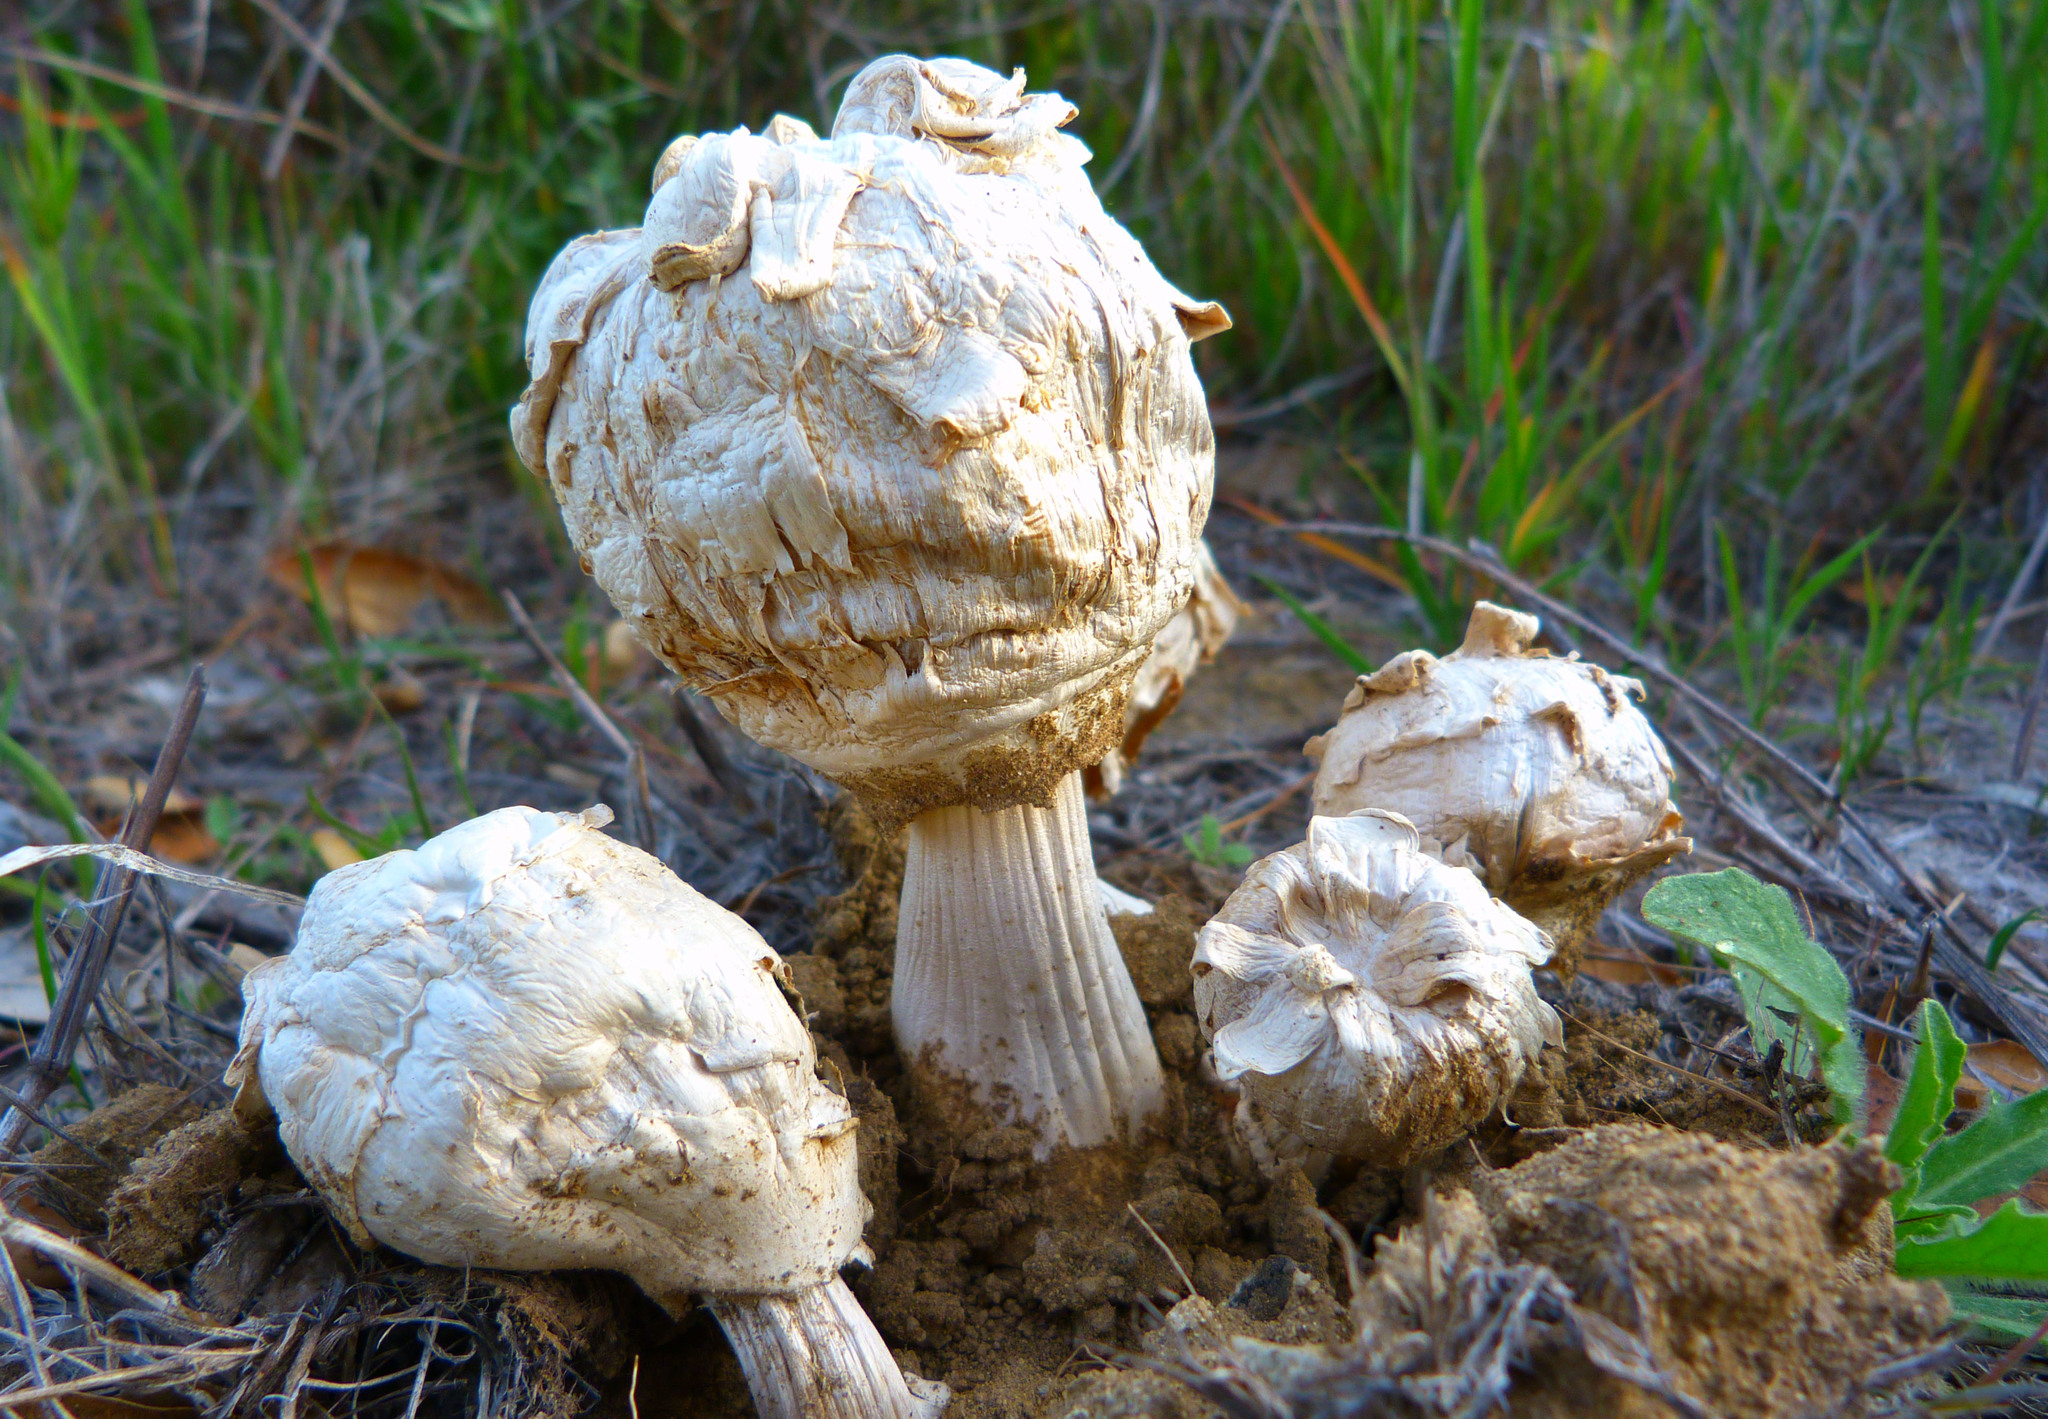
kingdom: Fungi
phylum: Basidiomycota
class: Agaricomycetes
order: Agaricales
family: Agaricaceae
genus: Agaricus
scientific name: Agaricus deserticola
